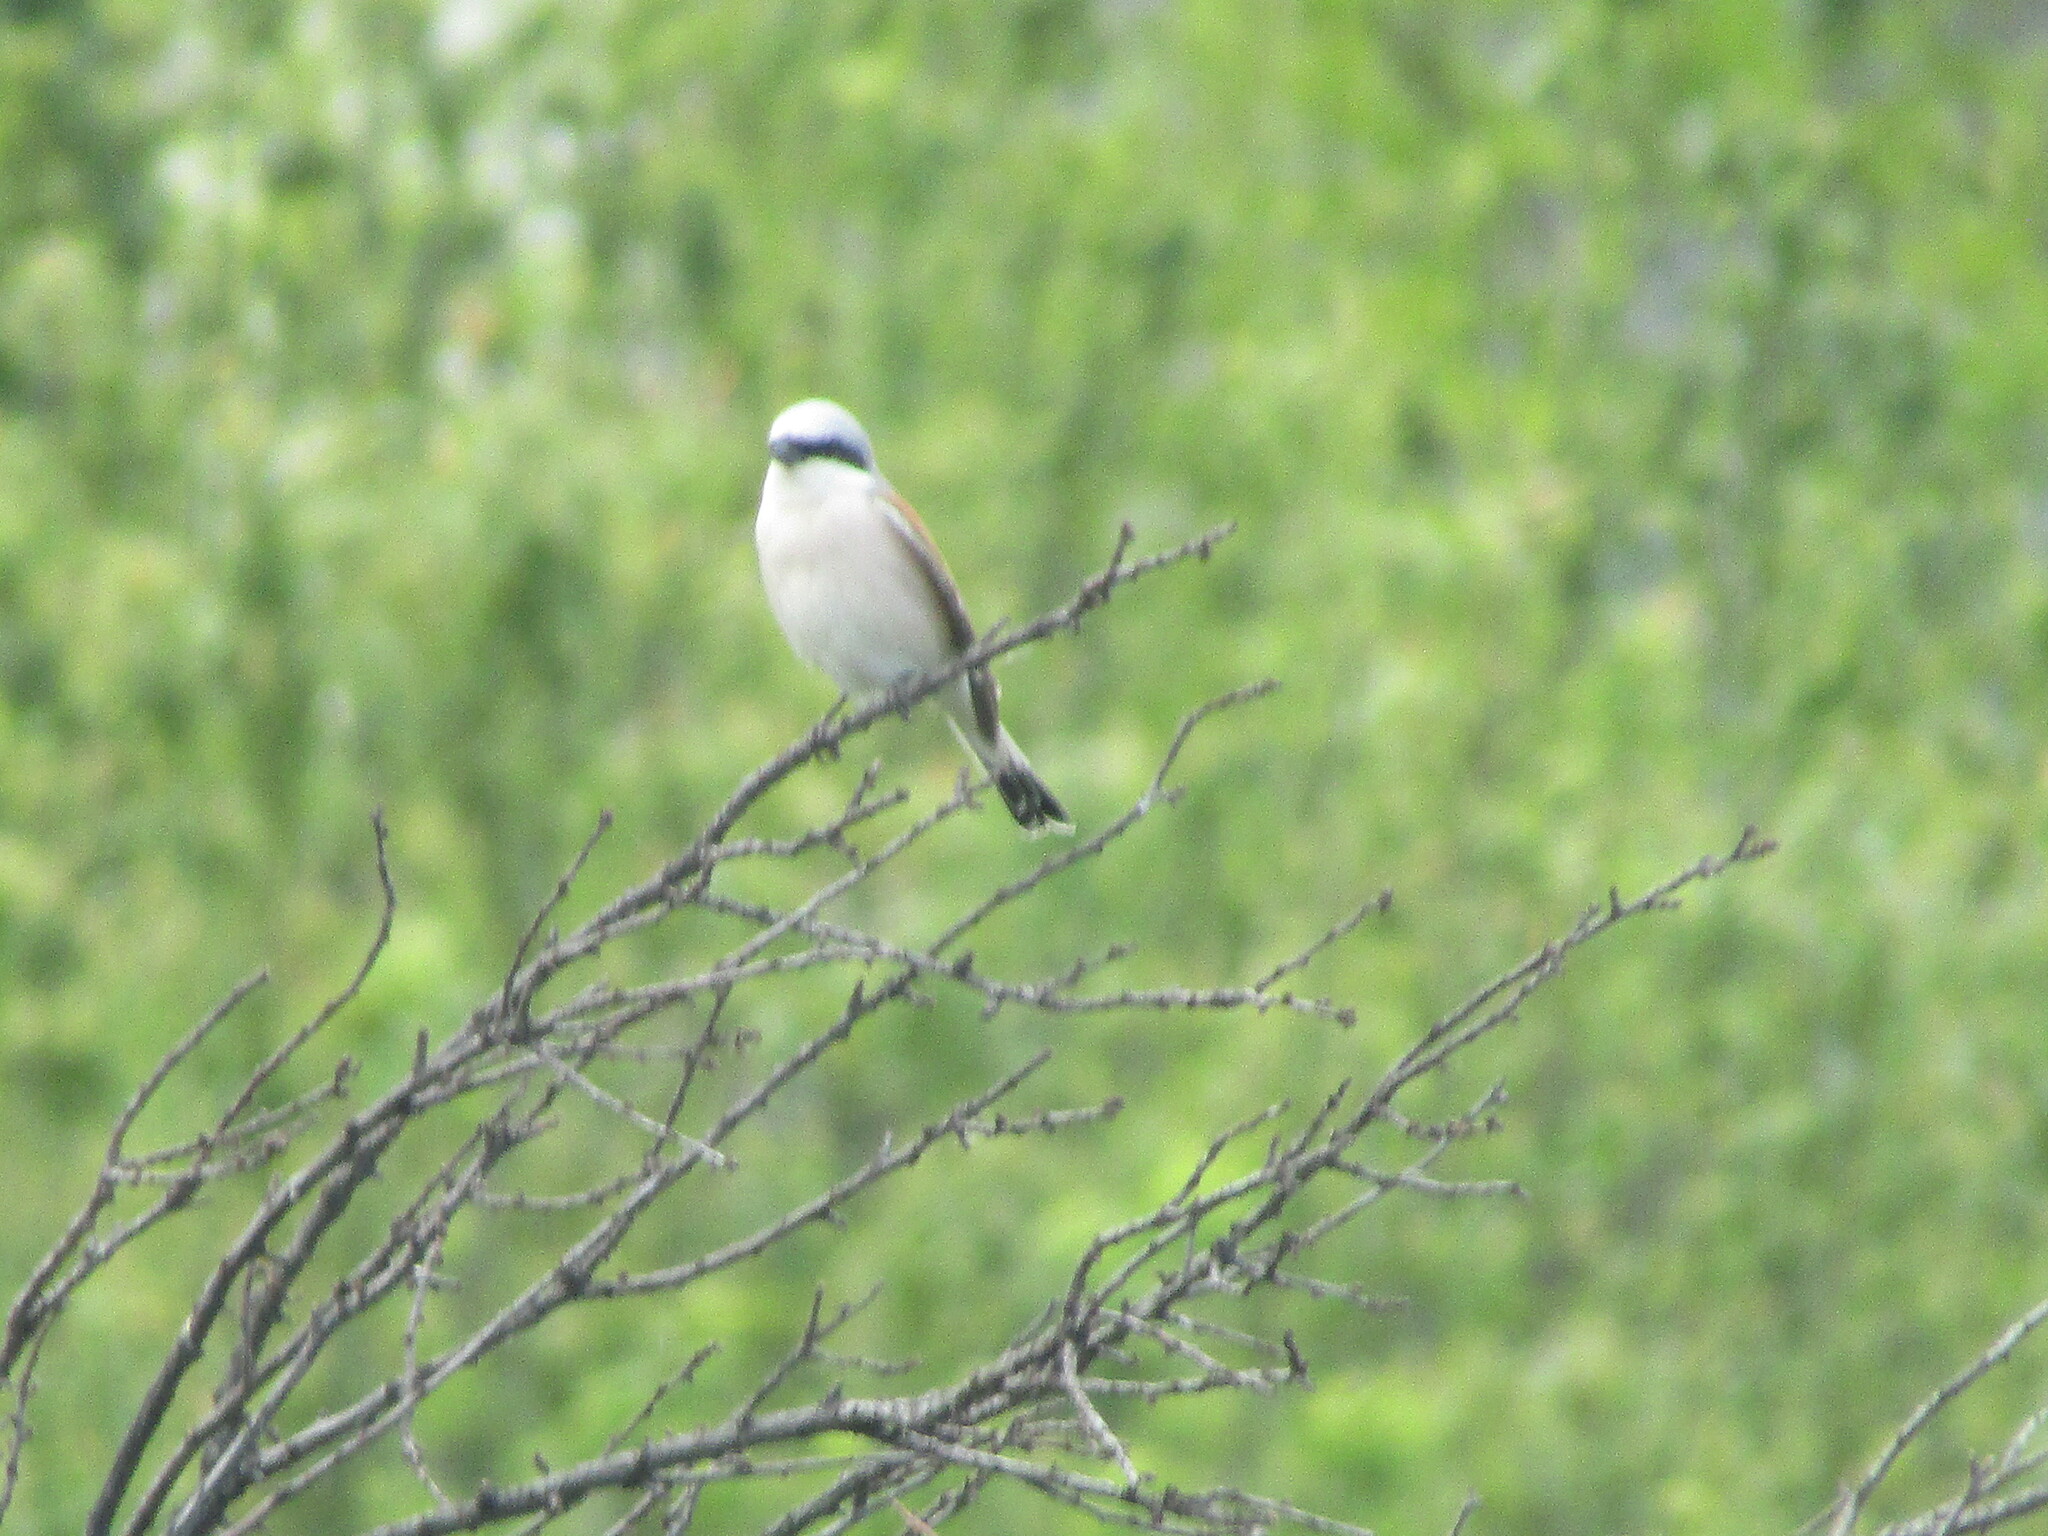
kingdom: Animalia
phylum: Chordata
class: Aves
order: Passeriformes
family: Laniidae
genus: Lanius
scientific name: Lanius collurio
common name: Red-backed shrike
